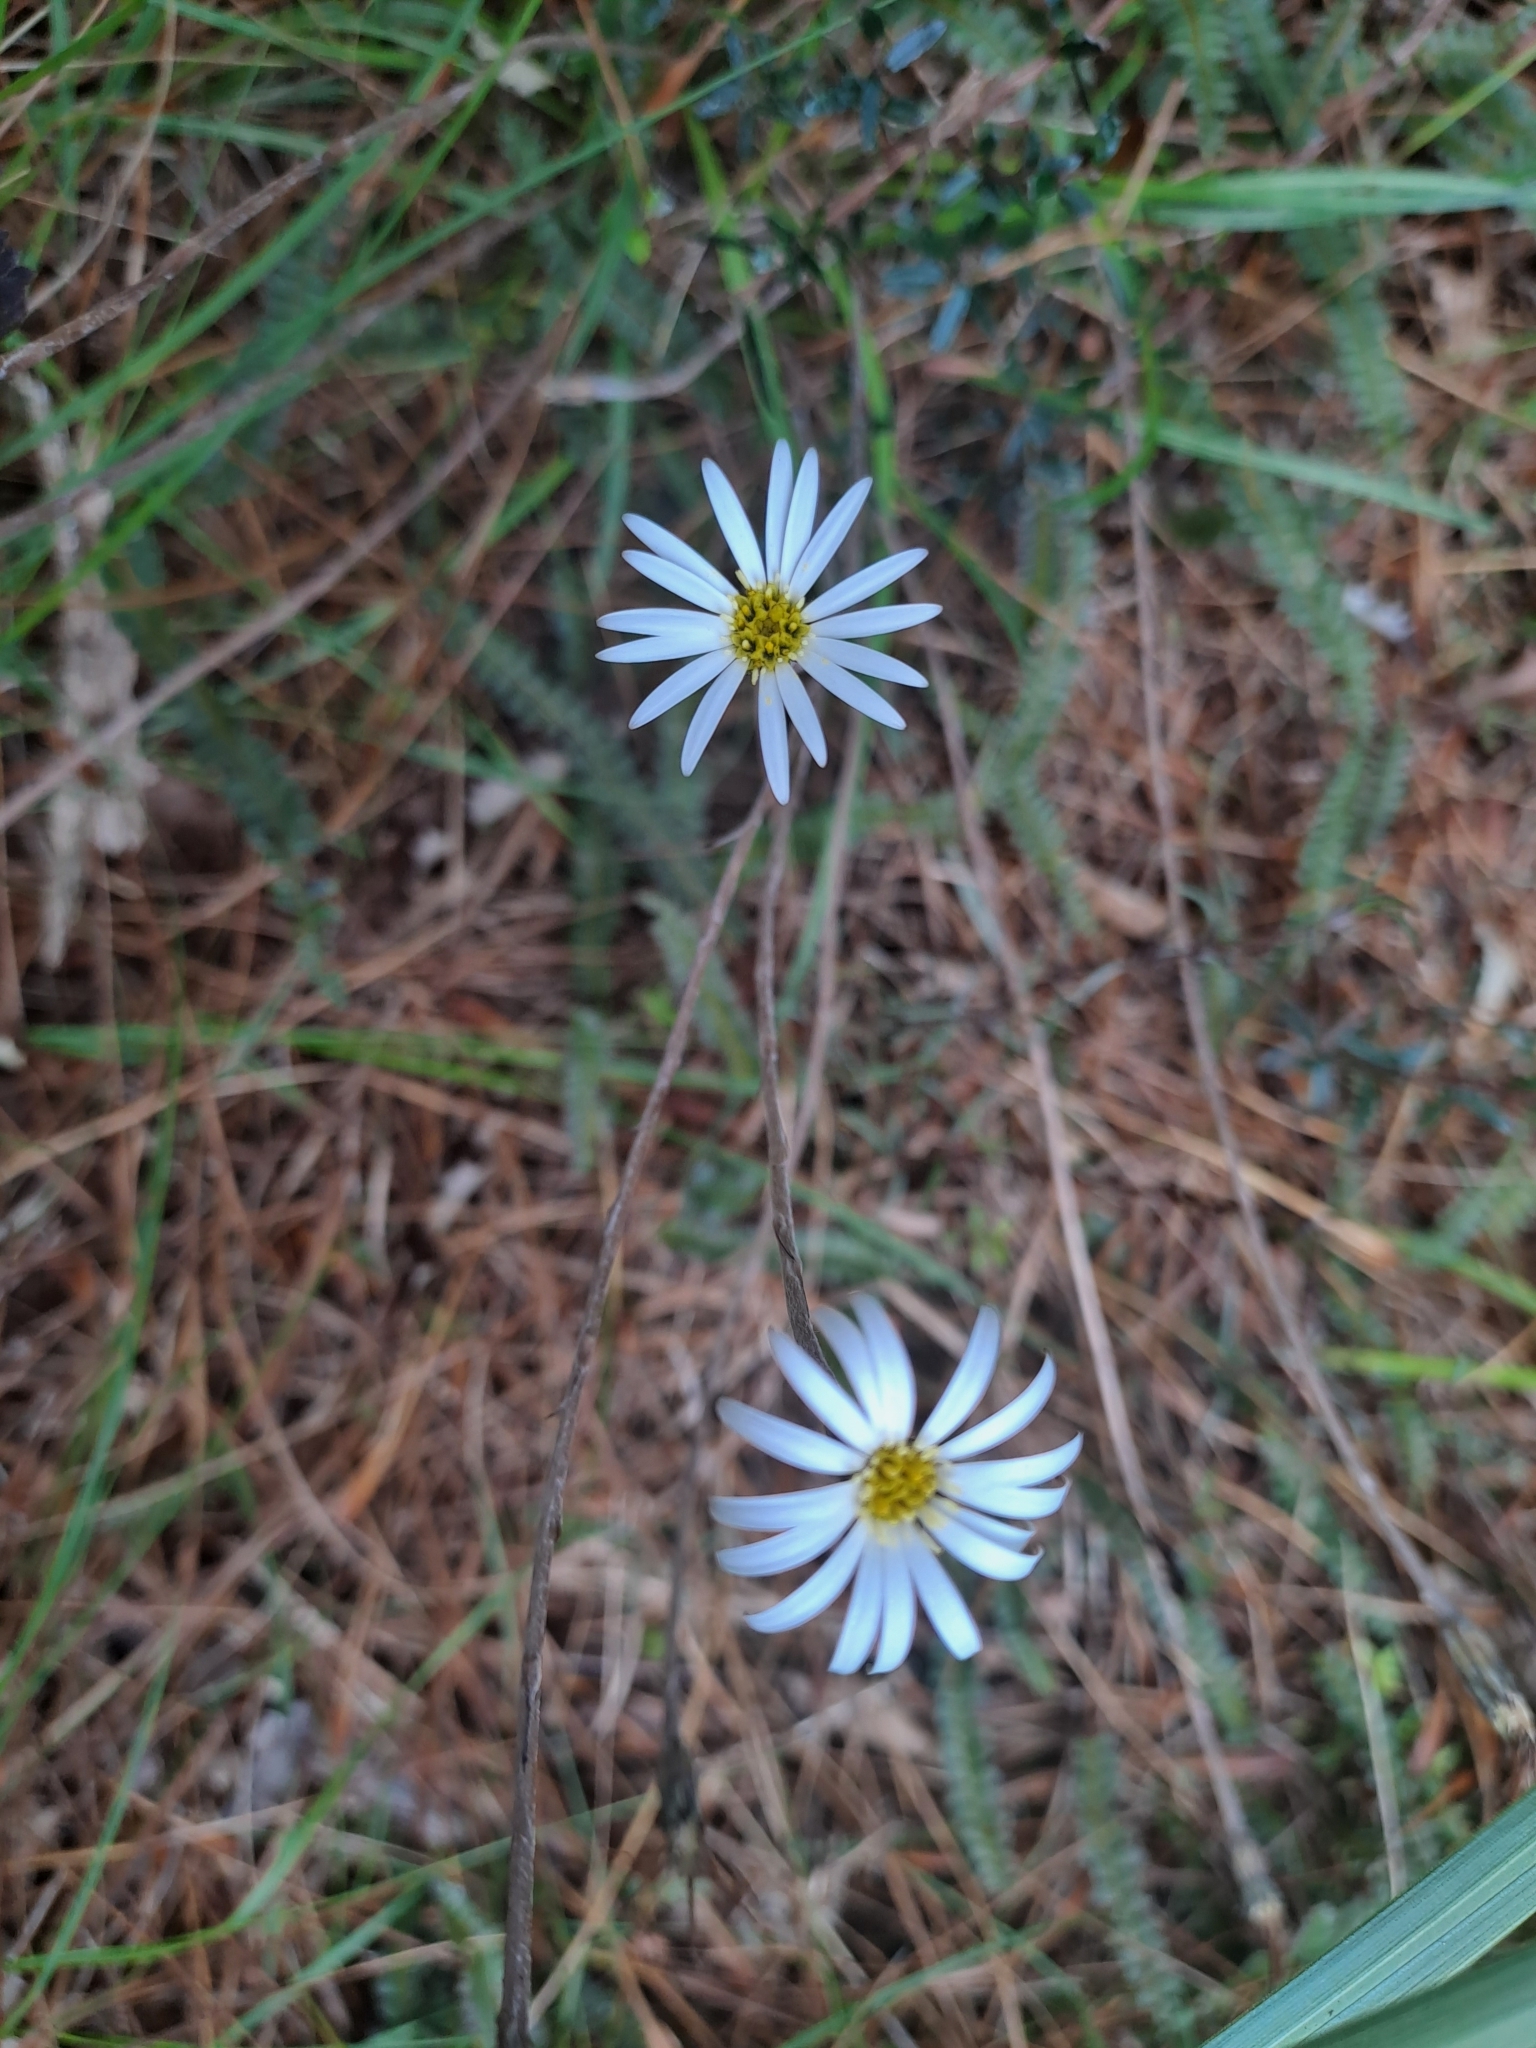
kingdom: Plantae
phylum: Tracheophyta
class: Magnoliopsida
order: Asterales
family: Asteraceae
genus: Celmisia
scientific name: Celmisia gracilenta
